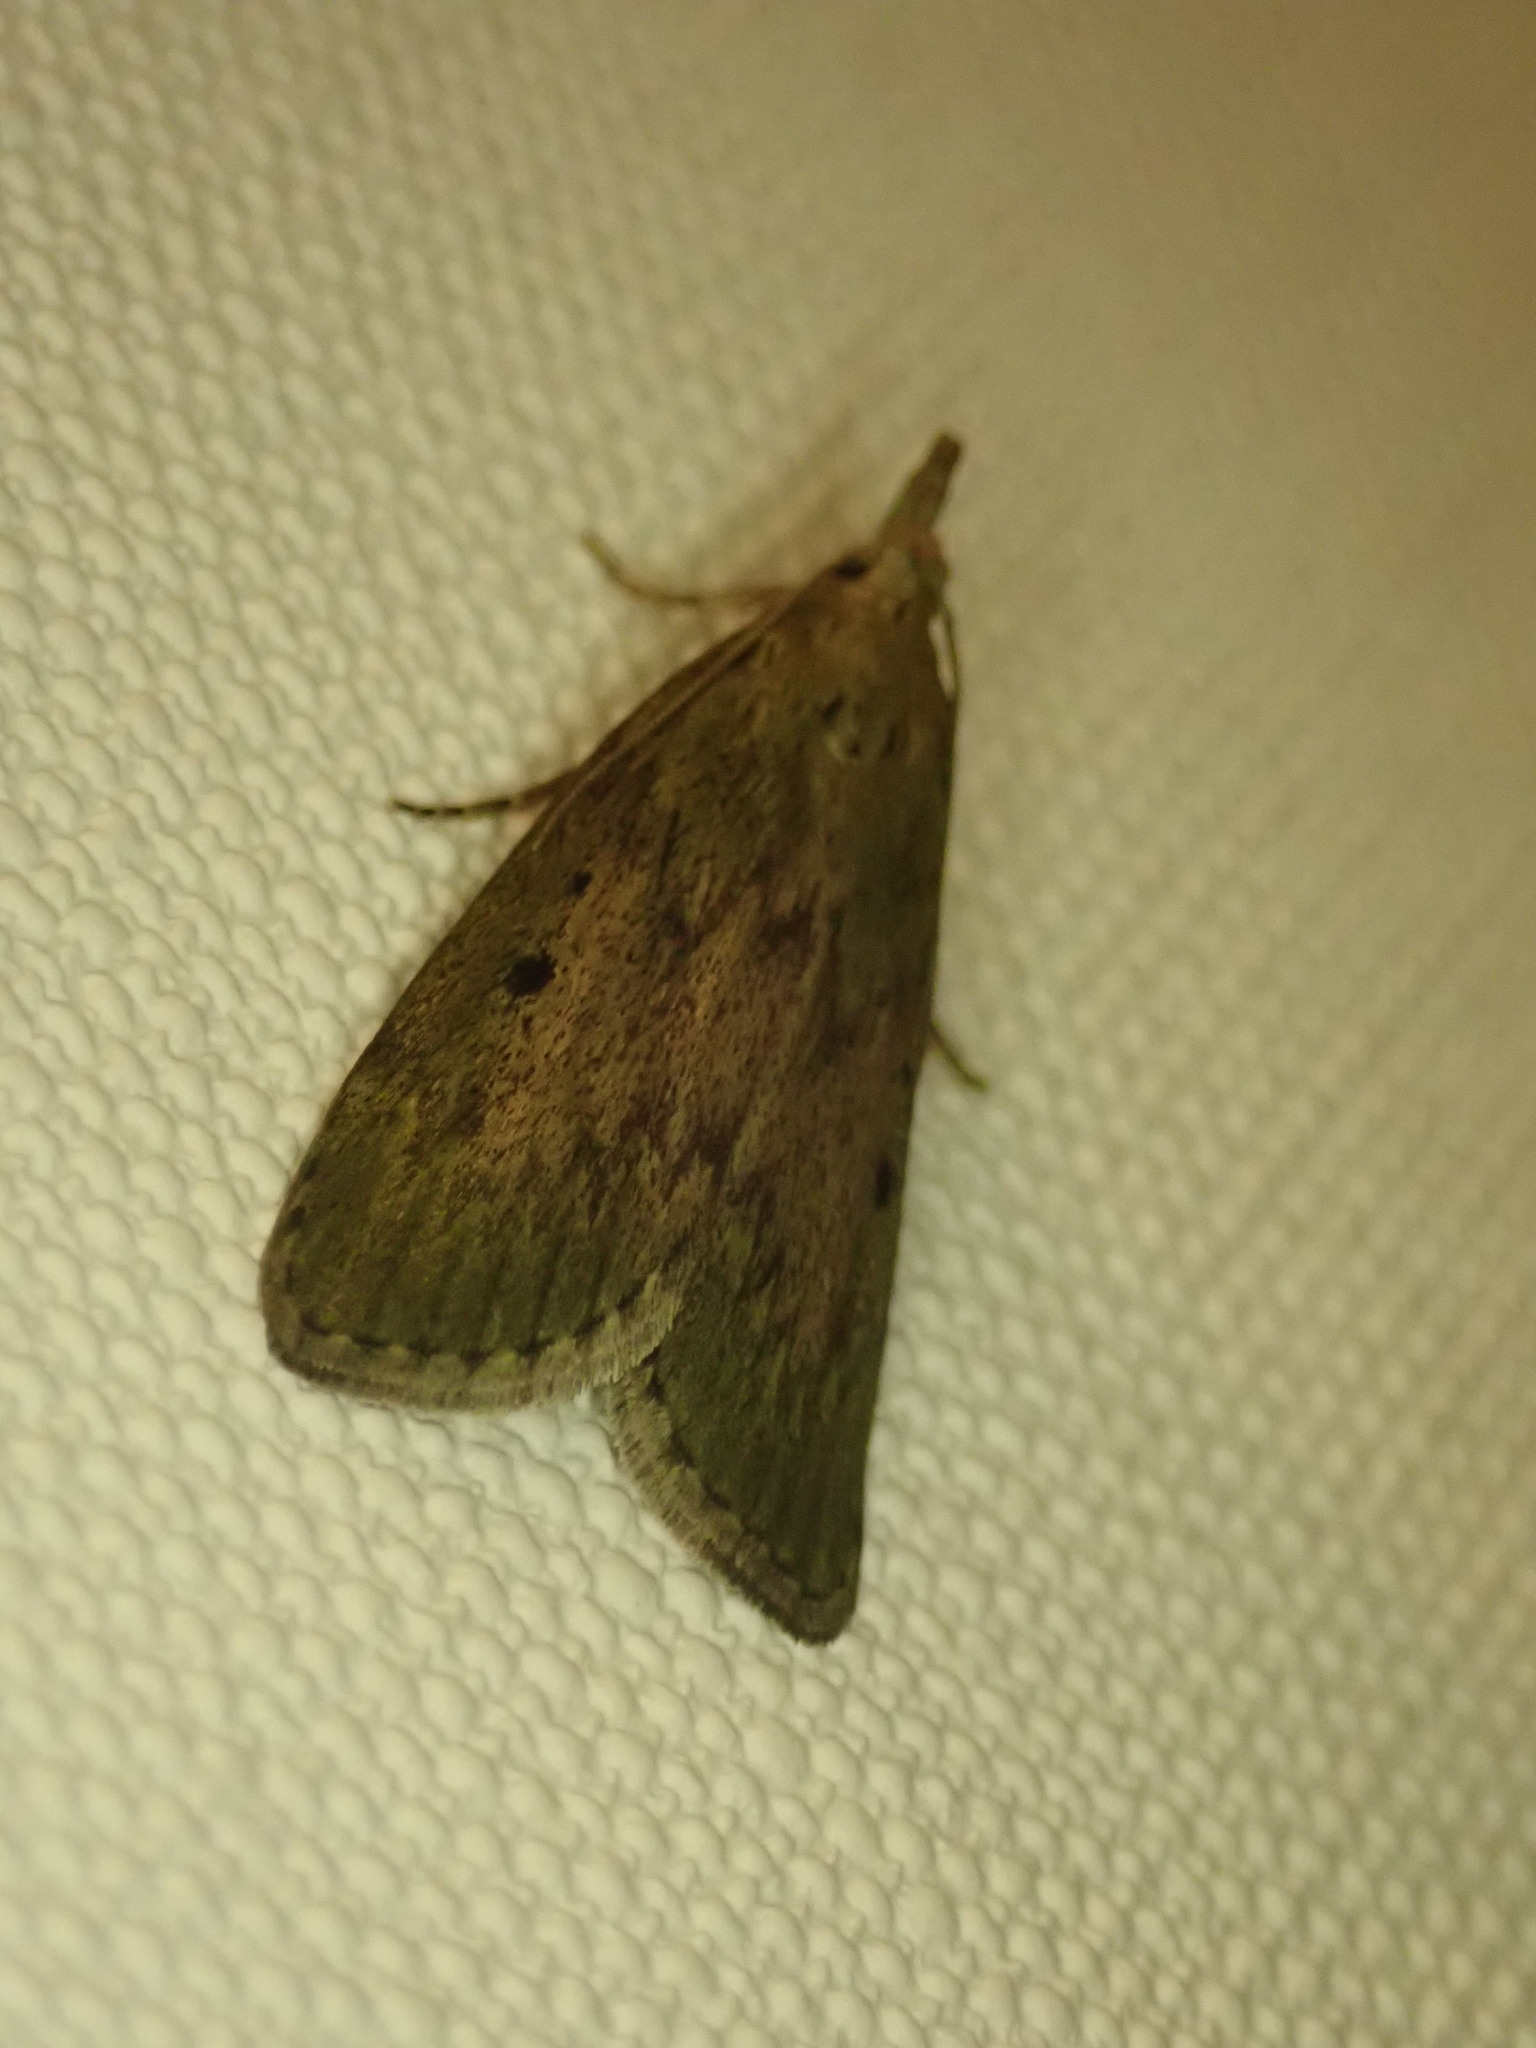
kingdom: Animalia
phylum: Arthropoda
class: Insecta
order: Lepidoptera
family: Pyralidae
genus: Aphomia
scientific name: Aphomia sociella
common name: Bee moth
